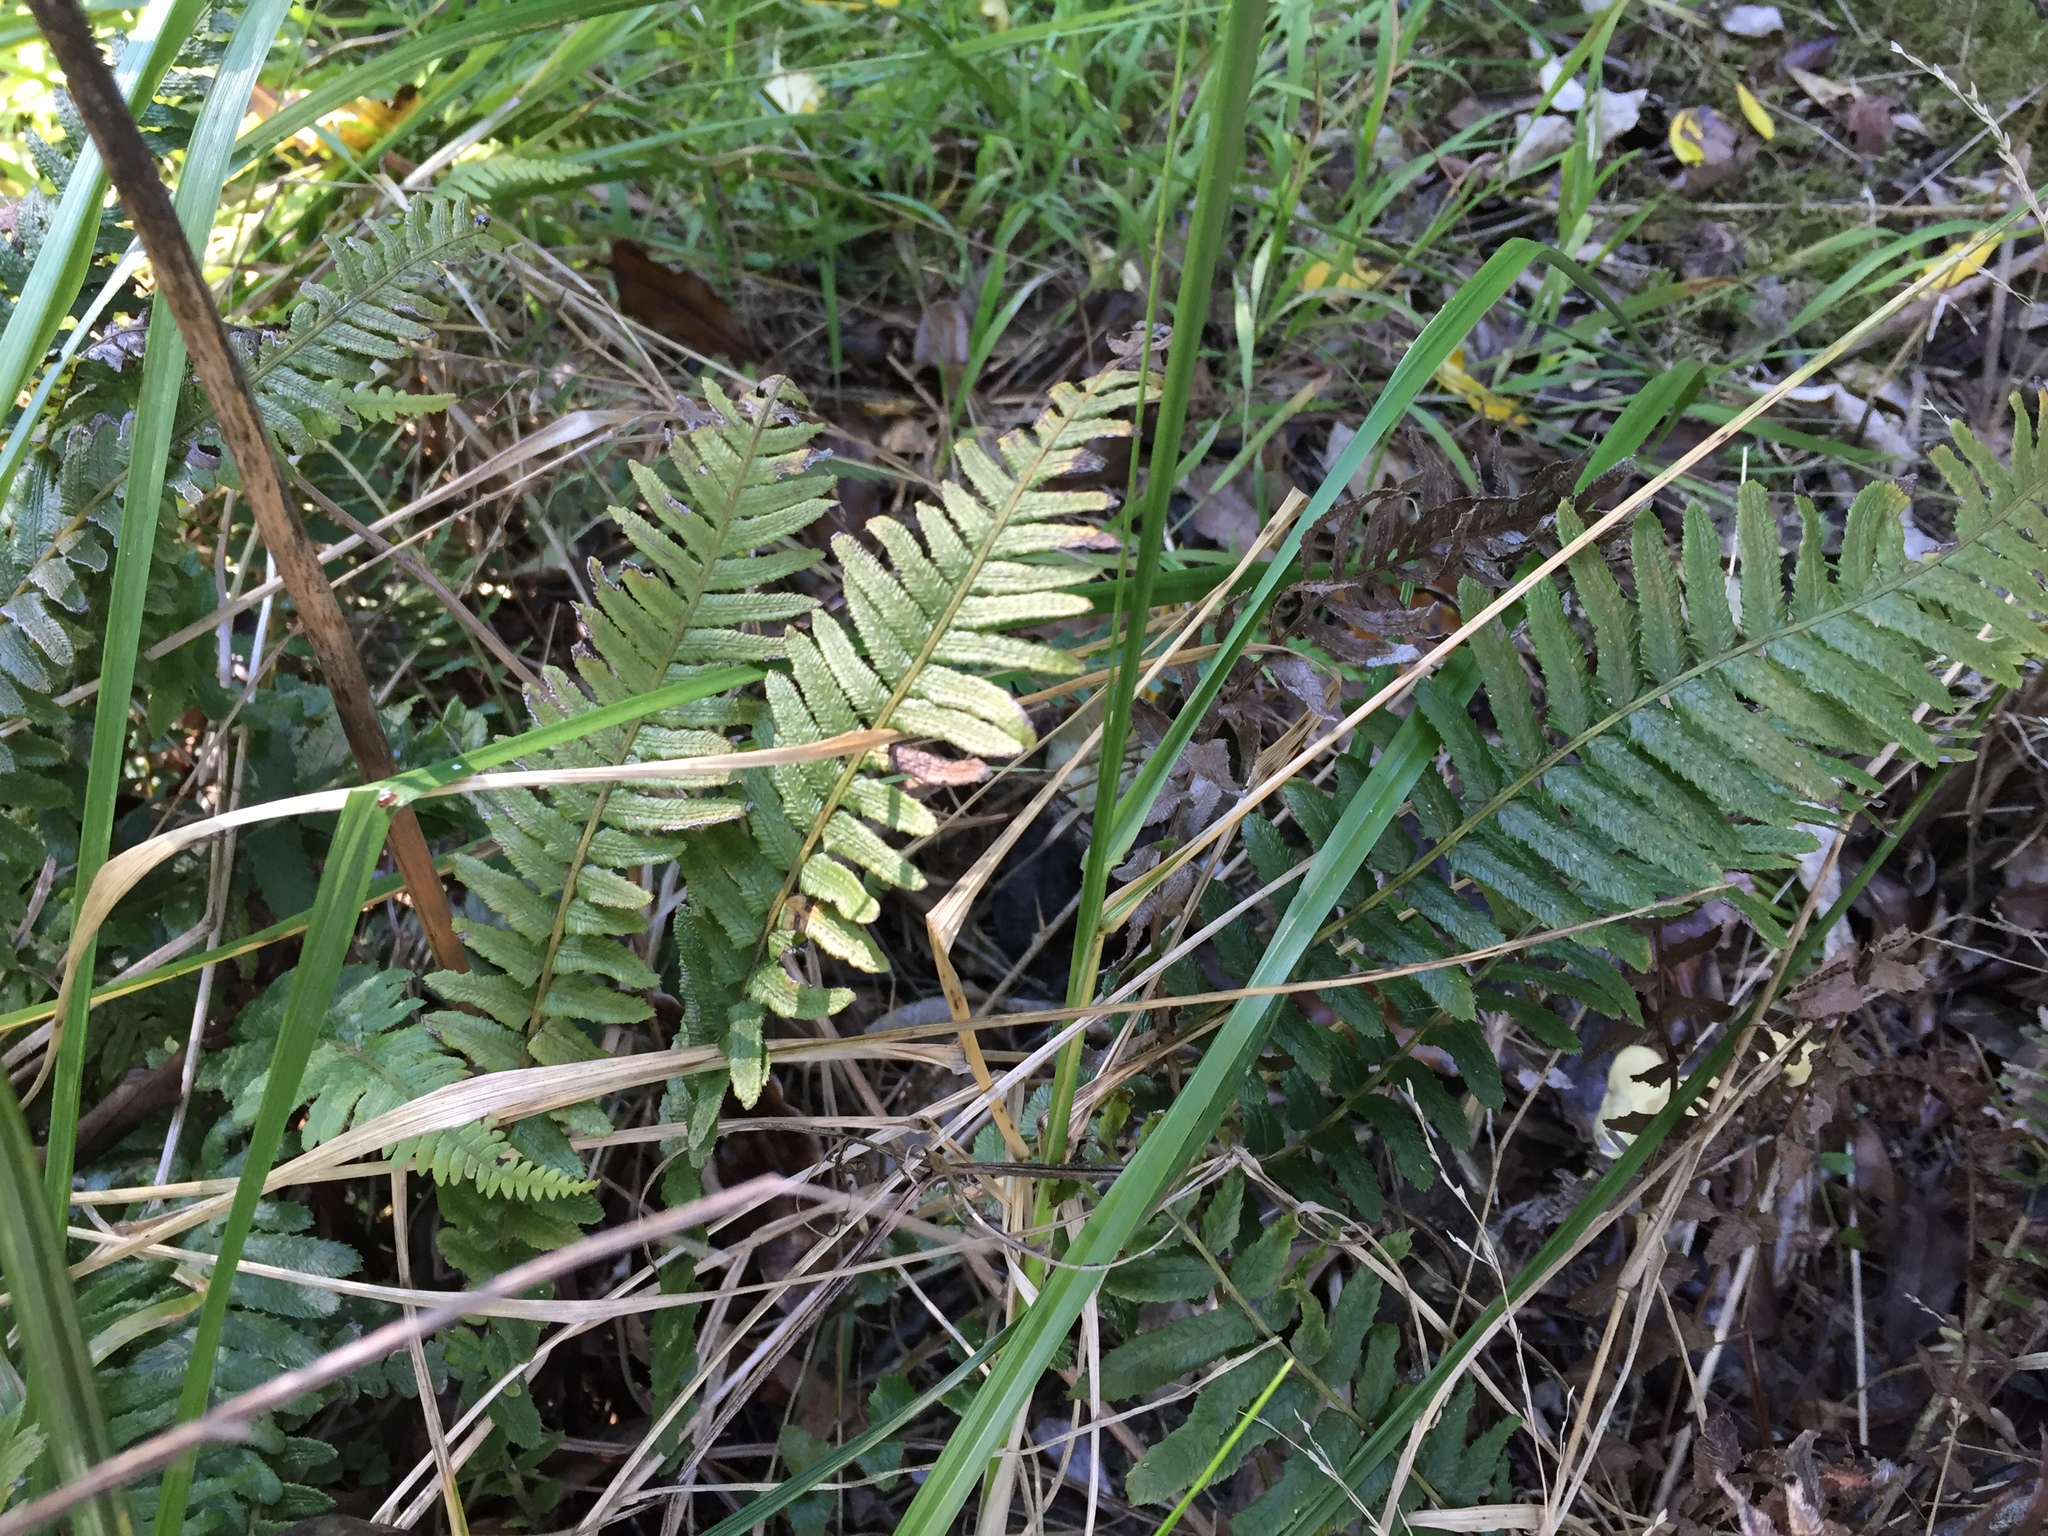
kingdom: Plantae
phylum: Tracheophyta
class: Polypodiopsida
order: Polypodiales
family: Blechnaceae
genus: Doodia
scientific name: Doodia australis
